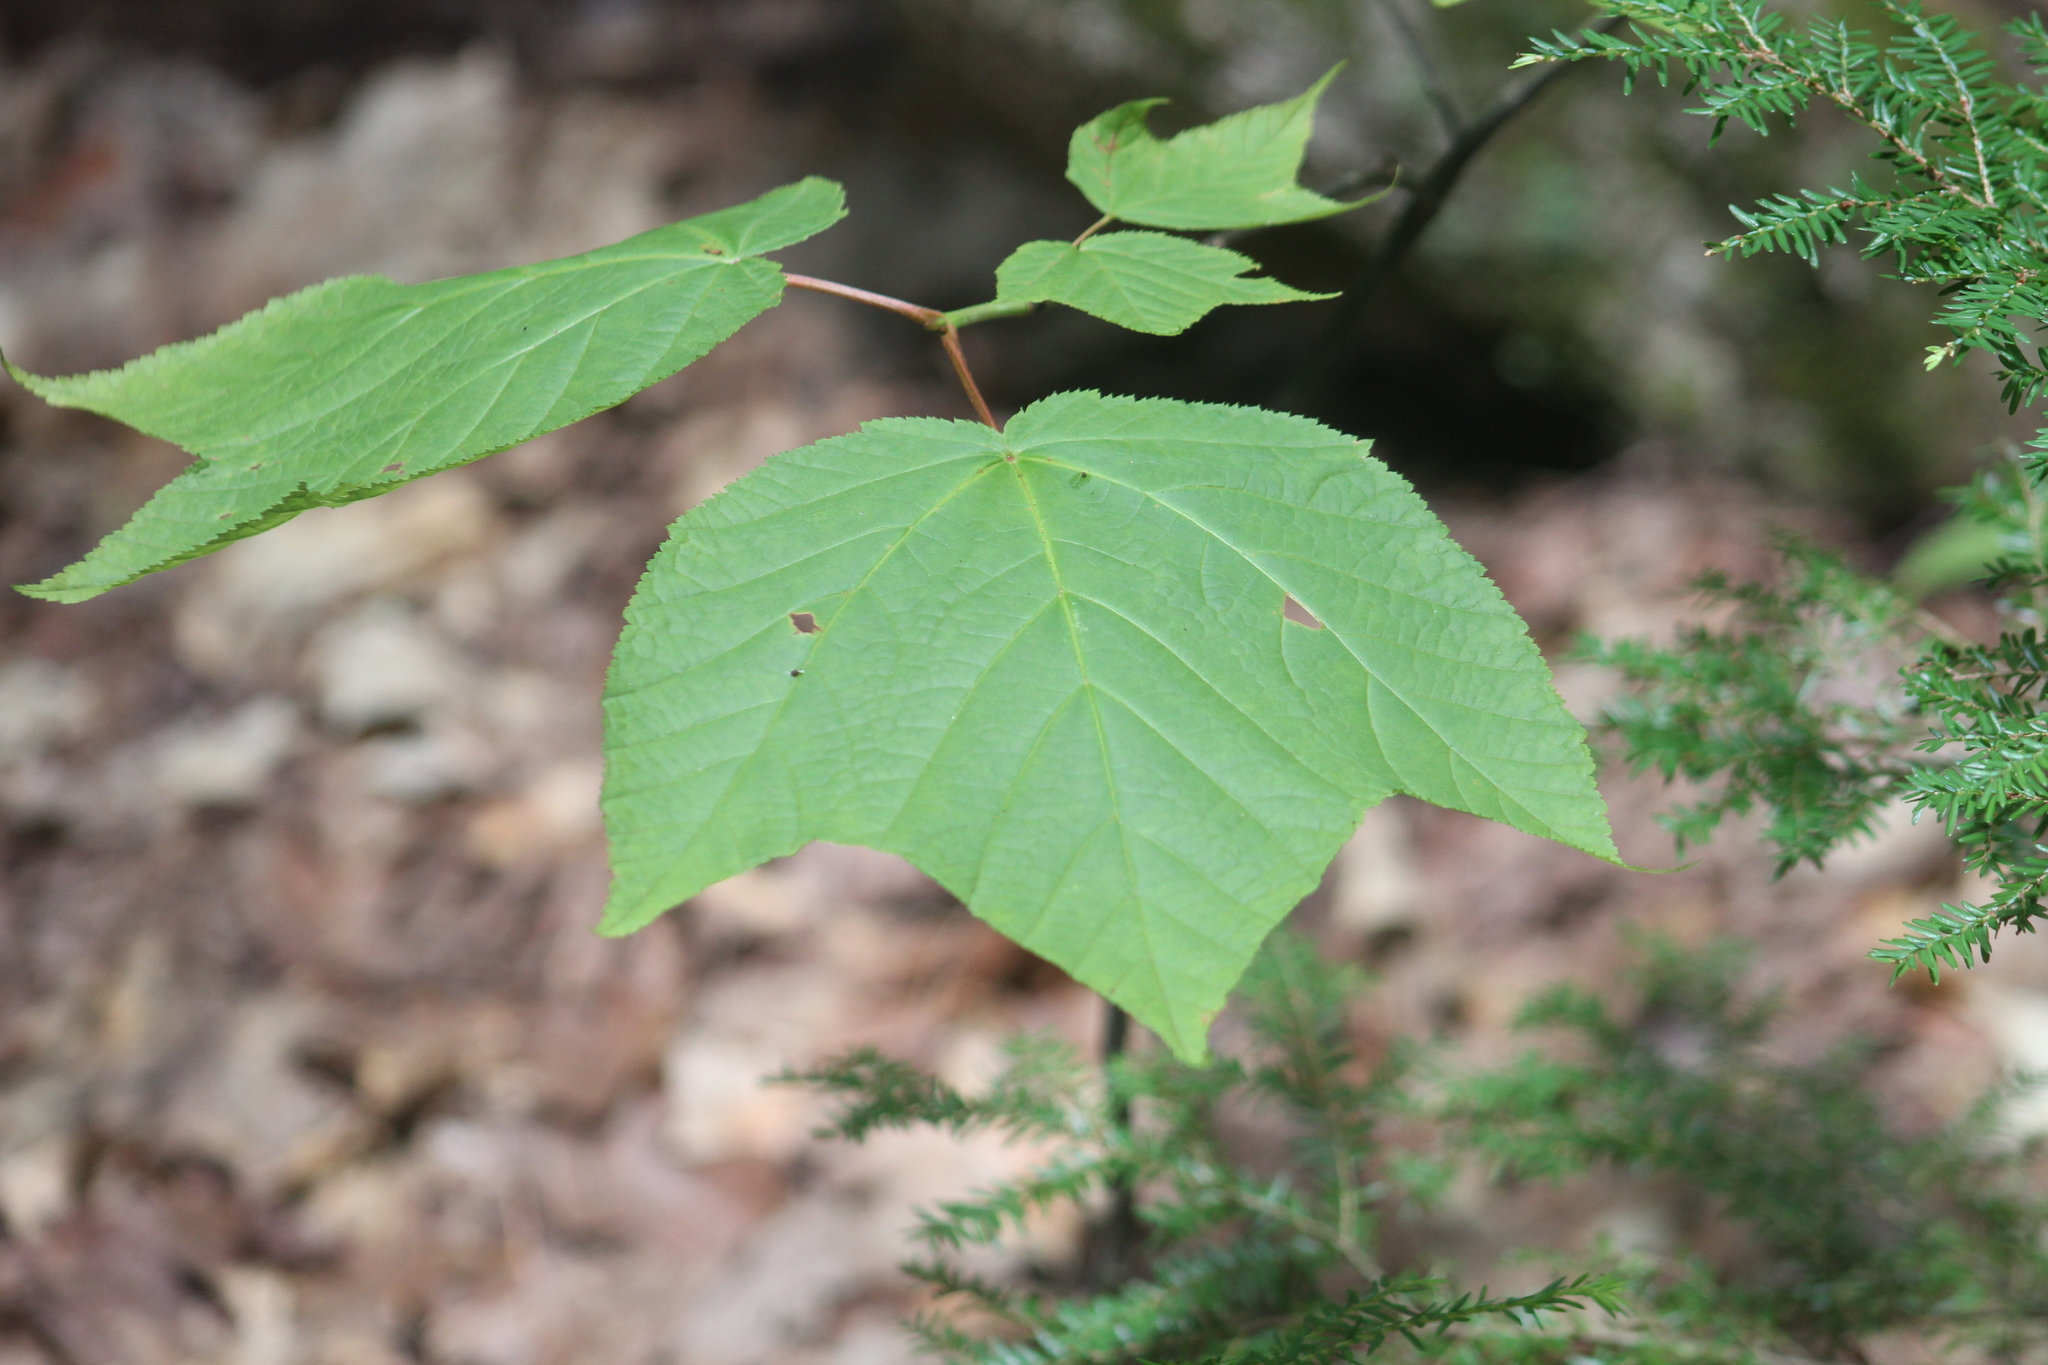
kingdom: Plantae
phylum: Tracheophyta
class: Magnoliopsida
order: Sapindales
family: Sapindaceae
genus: Acer
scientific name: Acer pensylvanicum
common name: Moosewood
